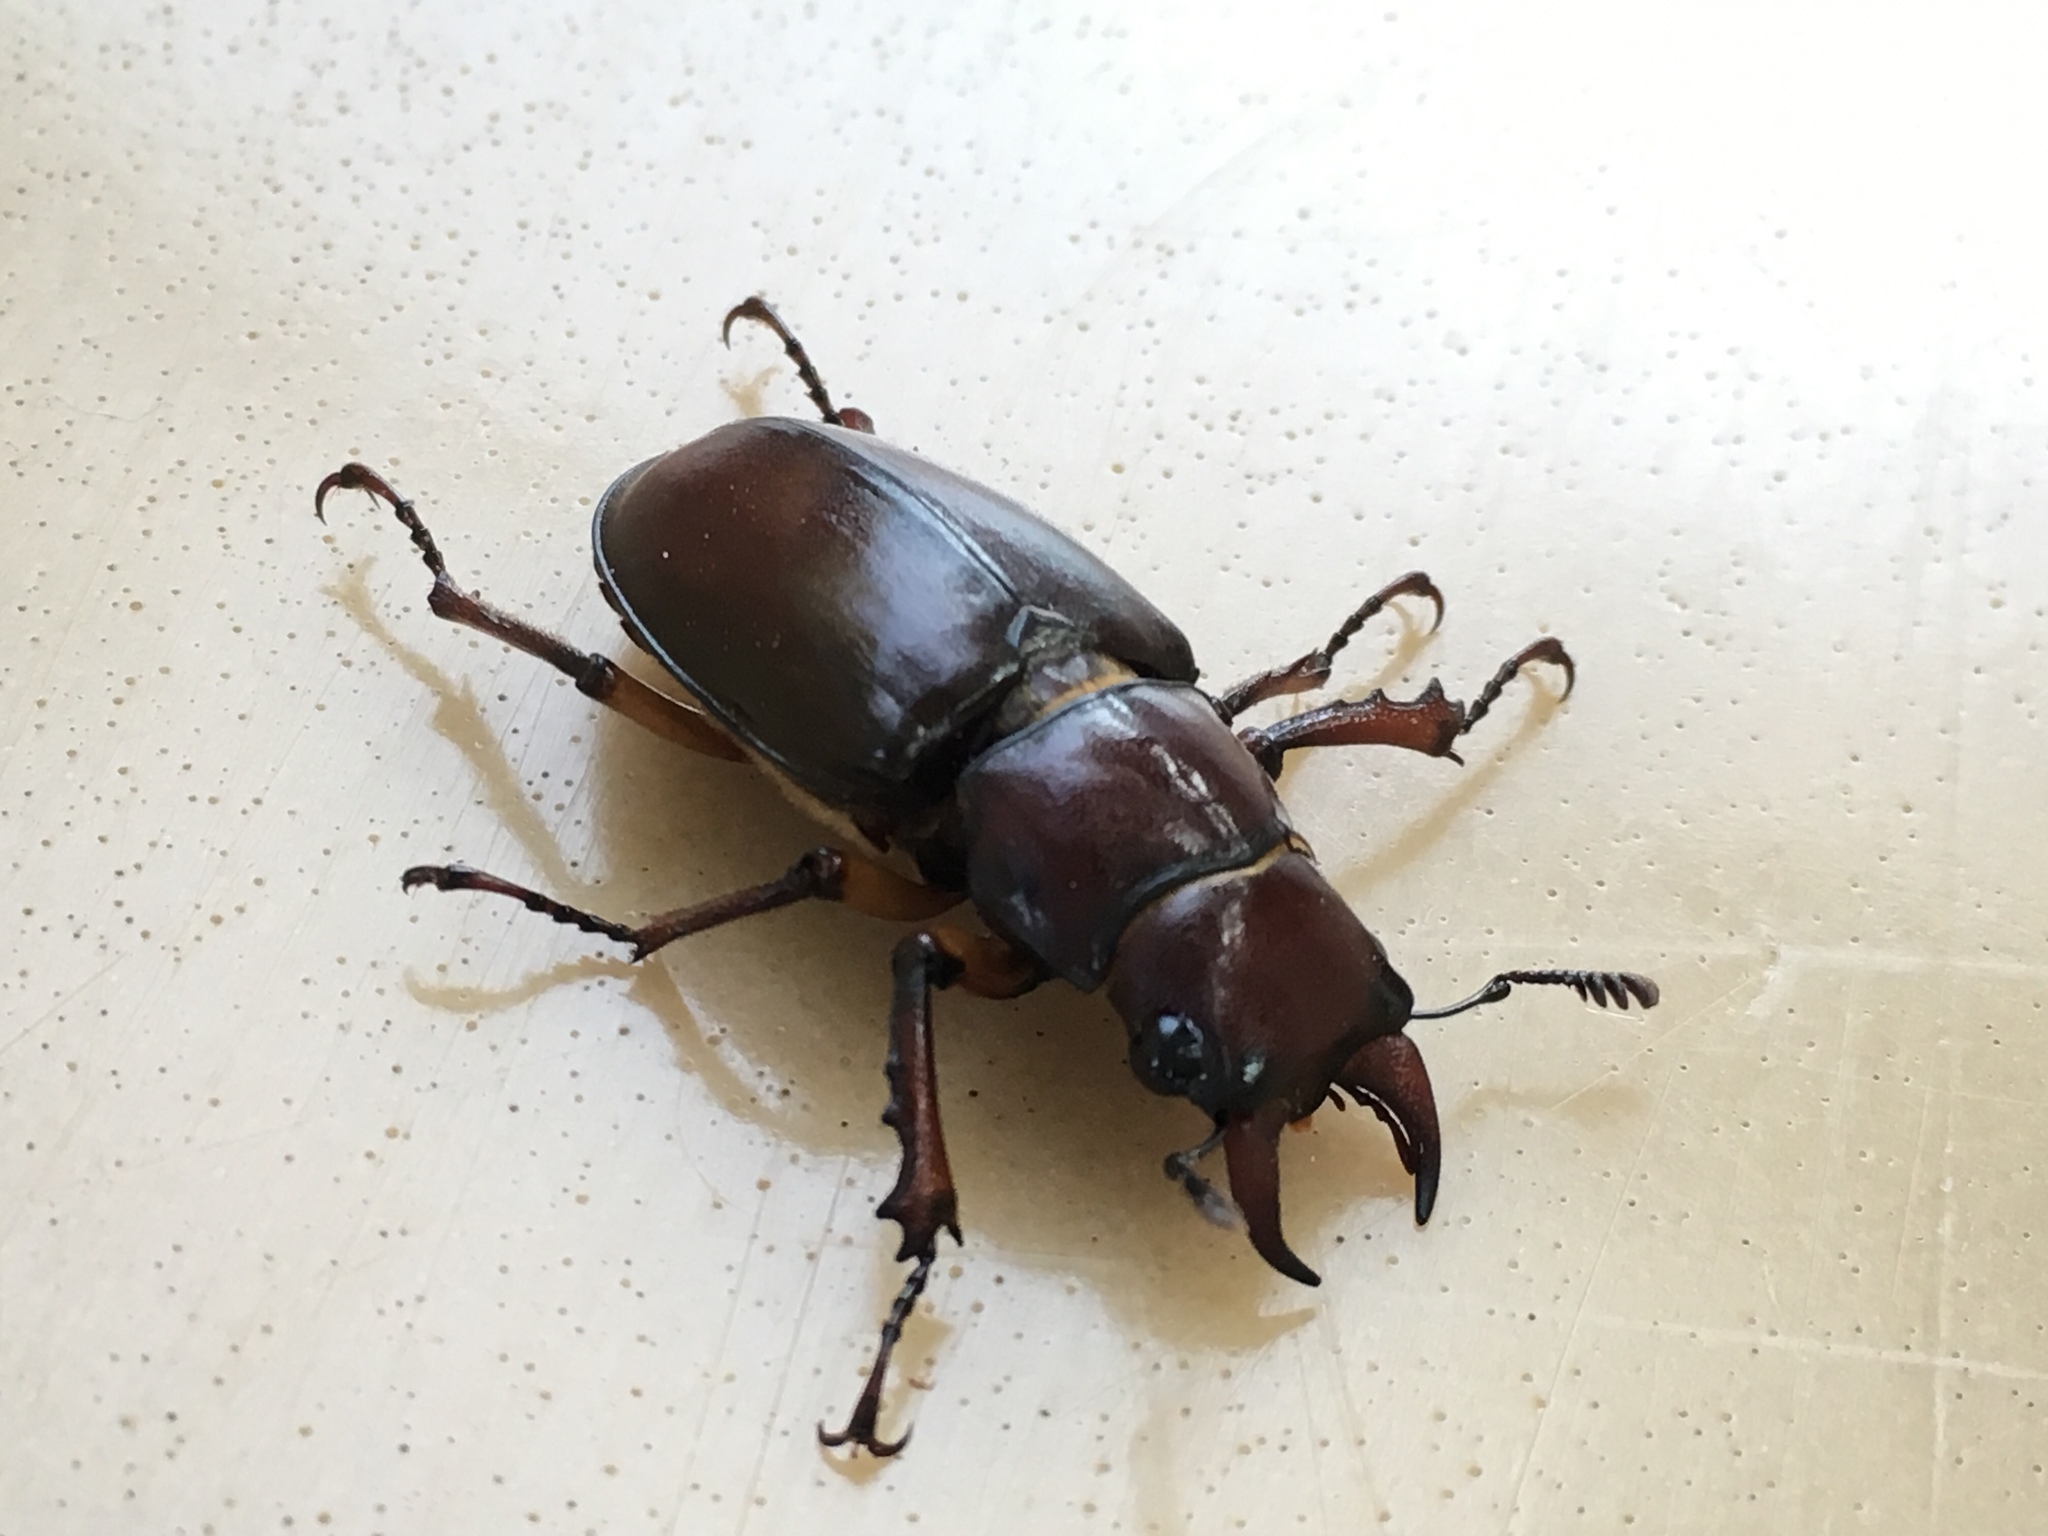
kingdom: Animalia
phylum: Arthropoda
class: Insecta
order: Coleoptera
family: Lucanidae
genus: Lucanus
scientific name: Lucanus capreolus
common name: Stag beetle
